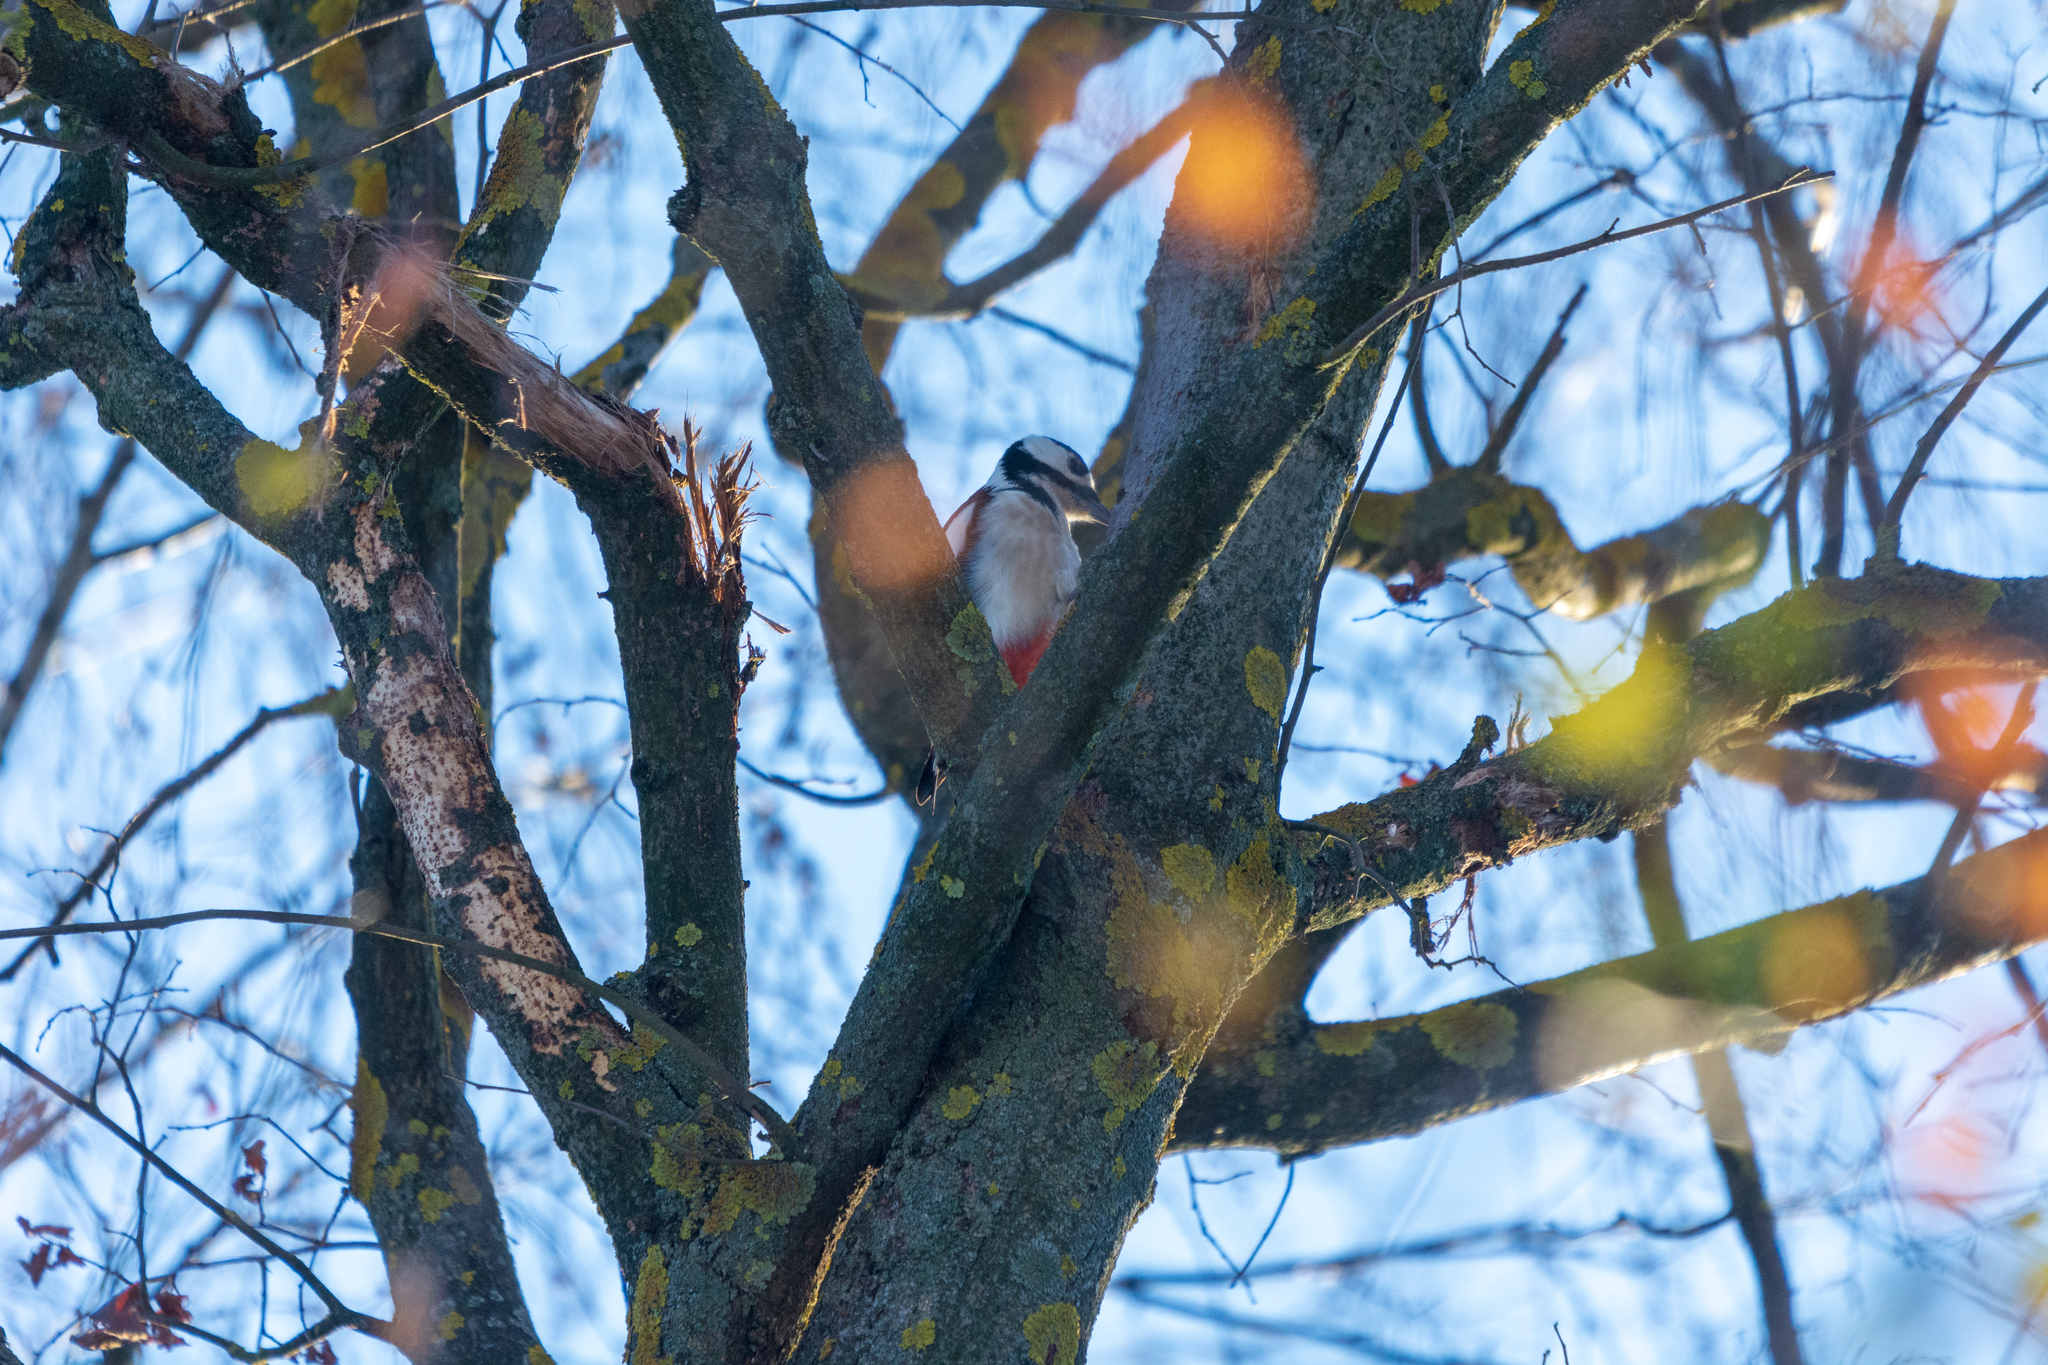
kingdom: Animalia
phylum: Chordata
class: Aves
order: Piciformes
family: Picidae
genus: Dendrocopos
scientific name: Dendrocopos major
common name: Great spotted woodpecker
